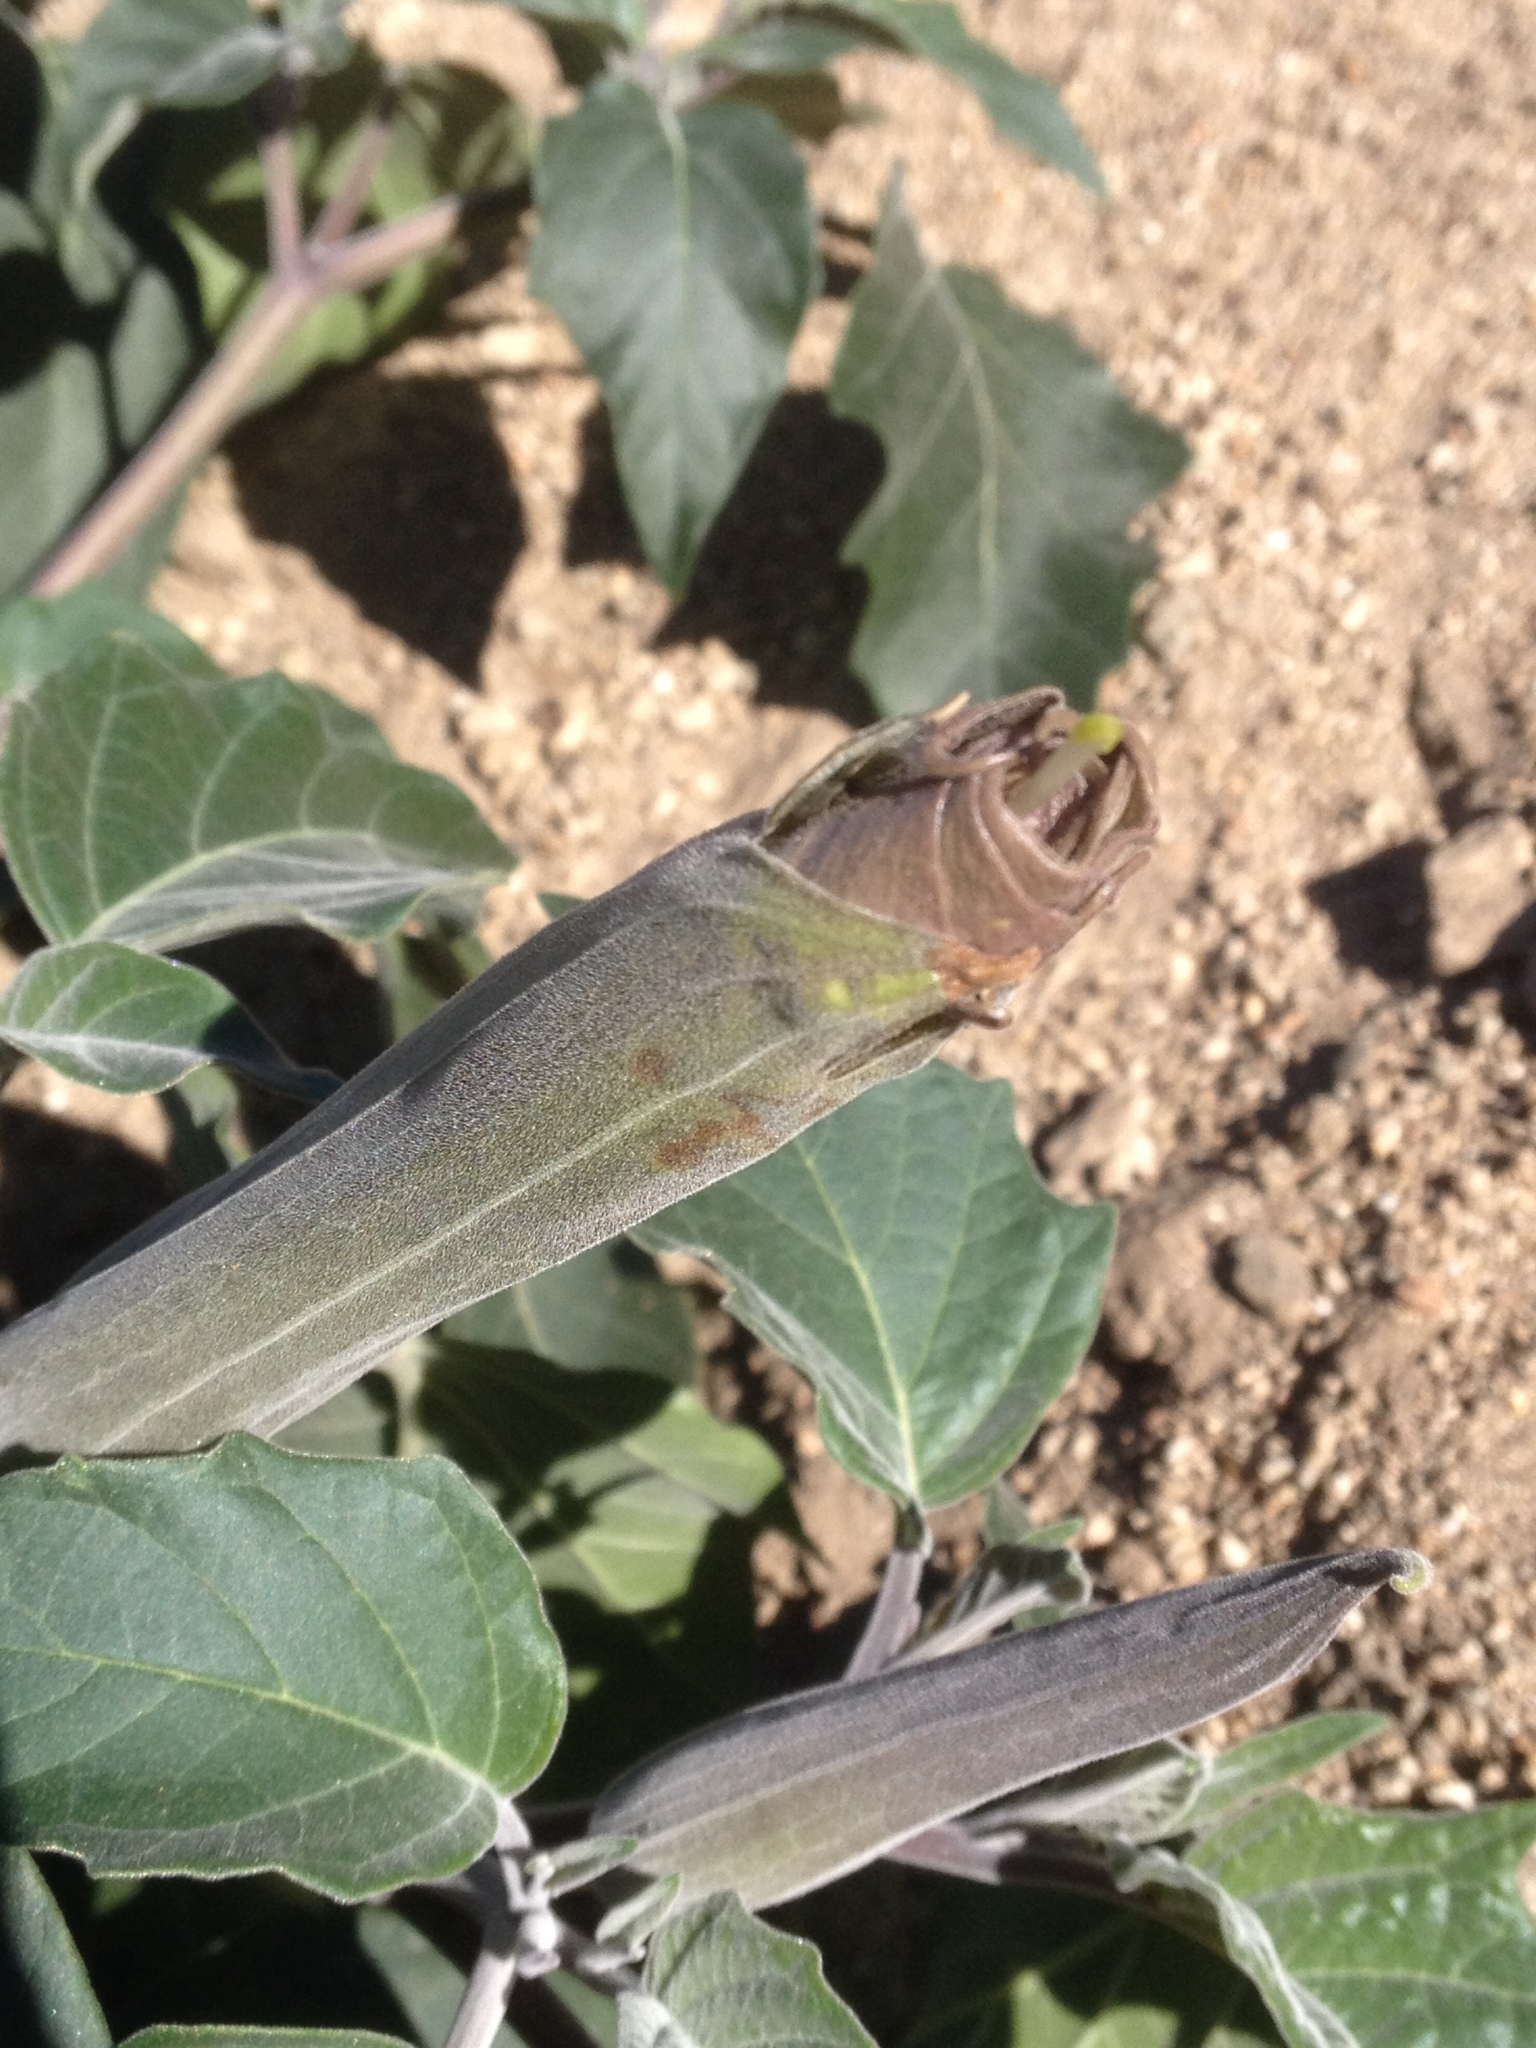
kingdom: Plantae
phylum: Tracheophyta
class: Magnoliopsida
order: Solanales
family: Solanaceae
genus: Datura
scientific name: Datura wrightii
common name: Sacred thorn-apple
